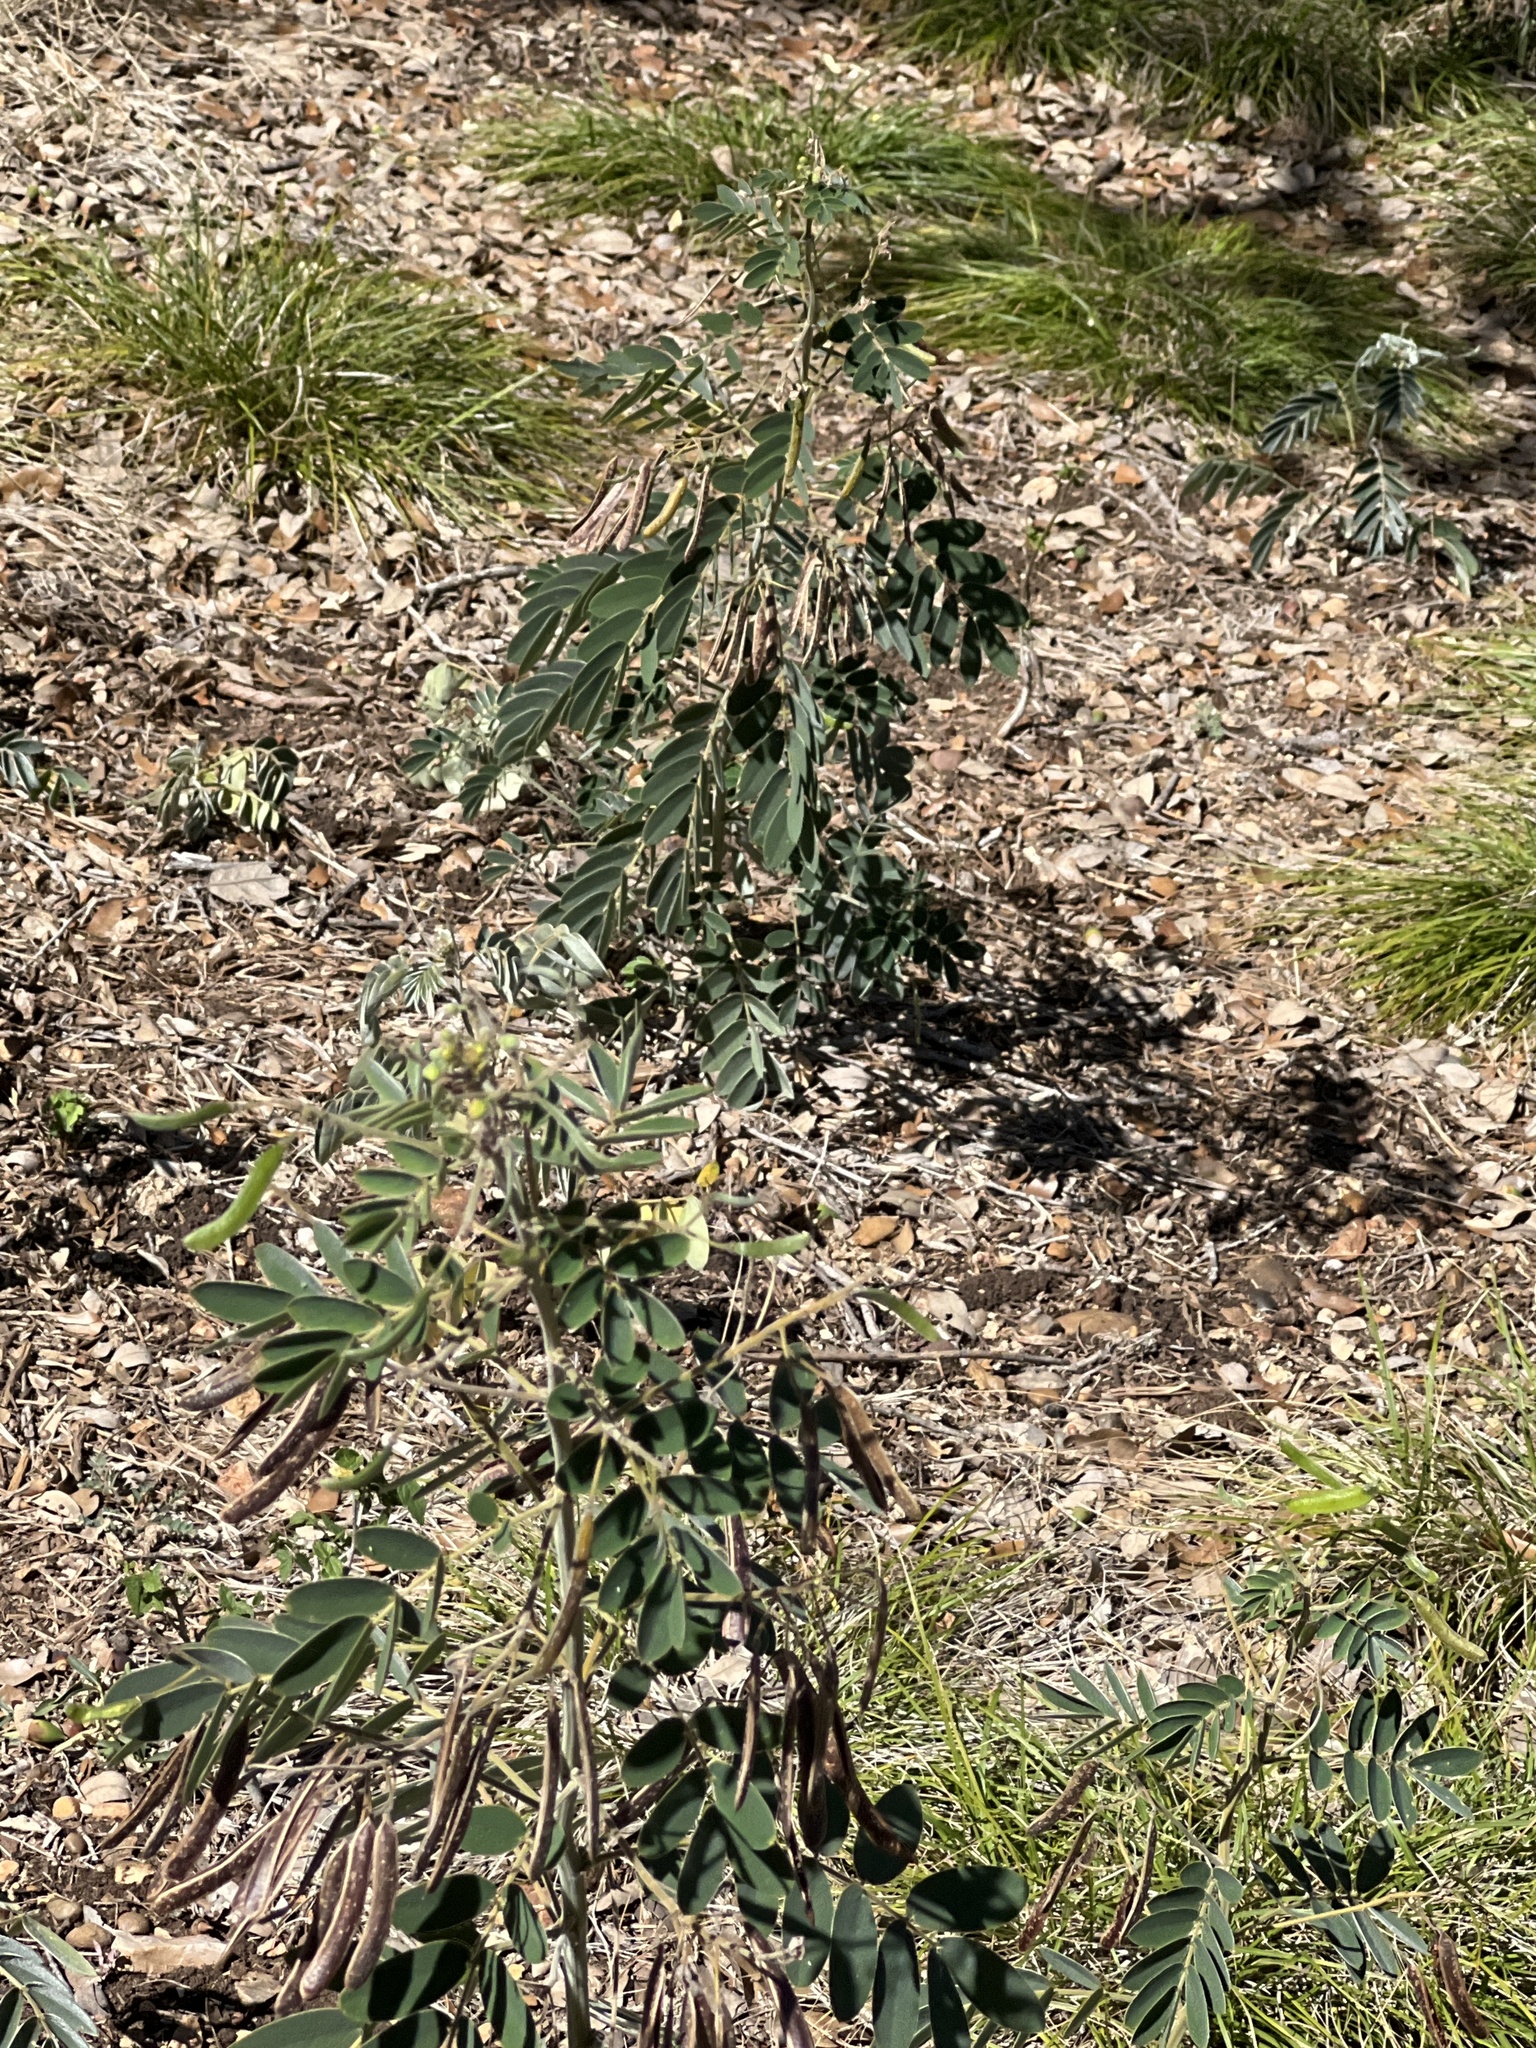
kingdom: Plantae
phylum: Tracheophyta
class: Magnoliopsida
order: Fabales
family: Fabaceae
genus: Senna
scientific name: Senna lindheimeriana
